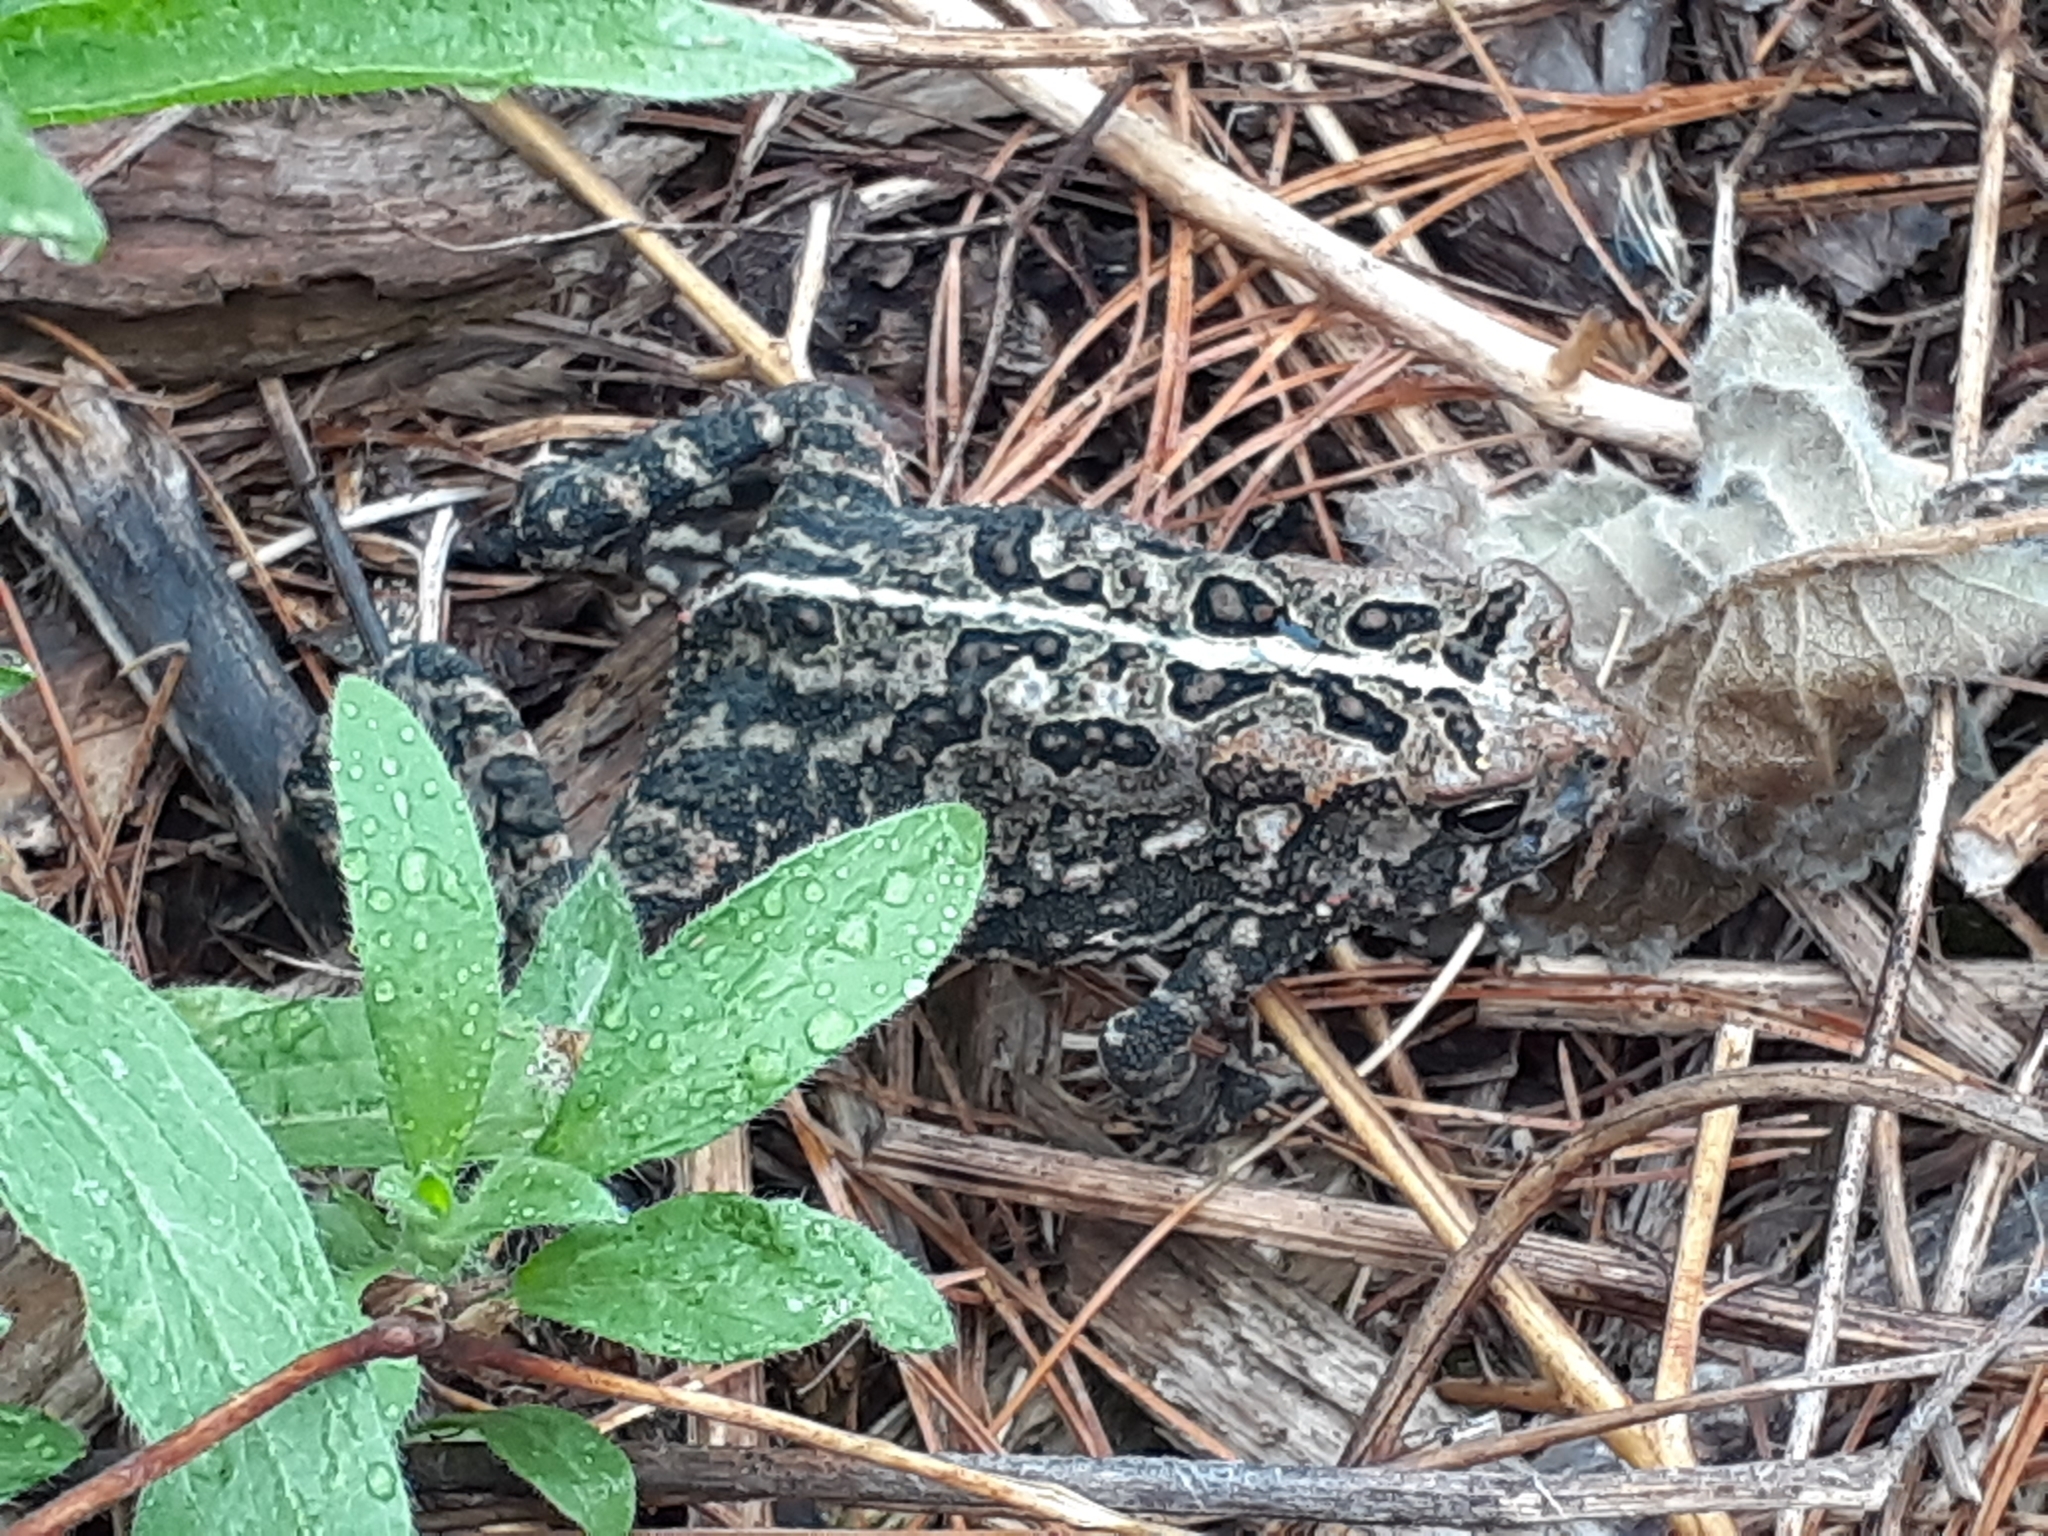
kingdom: Animalia
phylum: Chordata
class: Amphibia
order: Anura
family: Bufonidae
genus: Anaxyrus
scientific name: Anaxyrus americanus
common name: American toad
